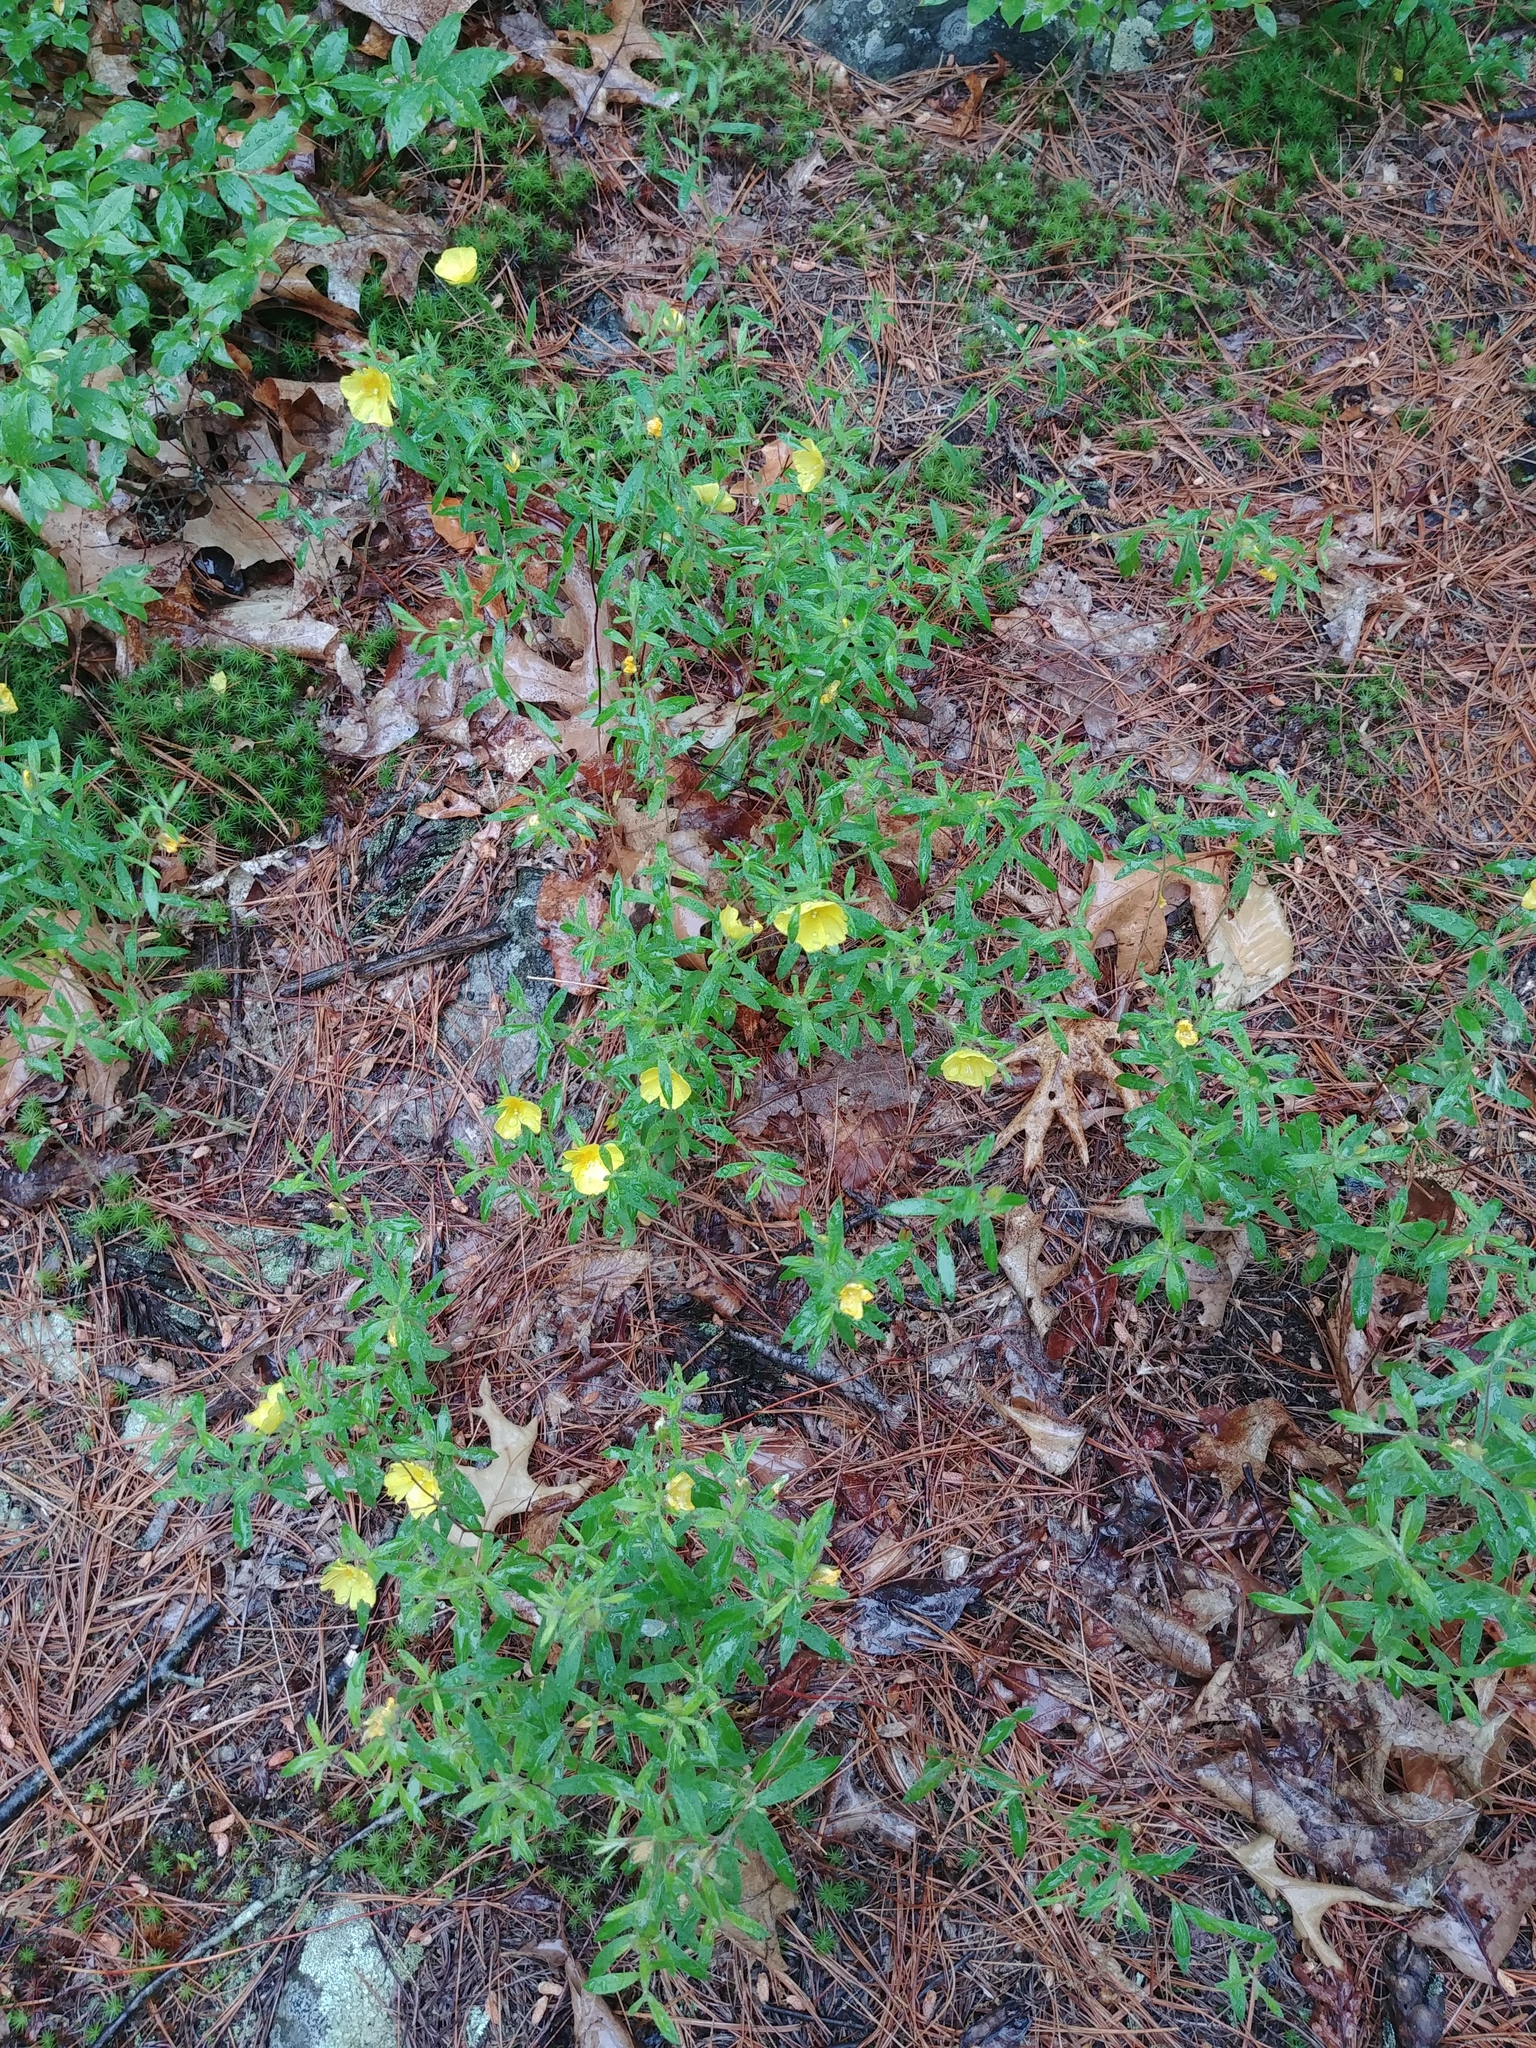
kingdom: Plantae
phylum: Tracheophyta
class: Magnoliopsida
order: Malvales
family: Cistaceae
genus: Crocanthemum
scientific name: Crocanthemum canadense
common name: Canada frostweed
